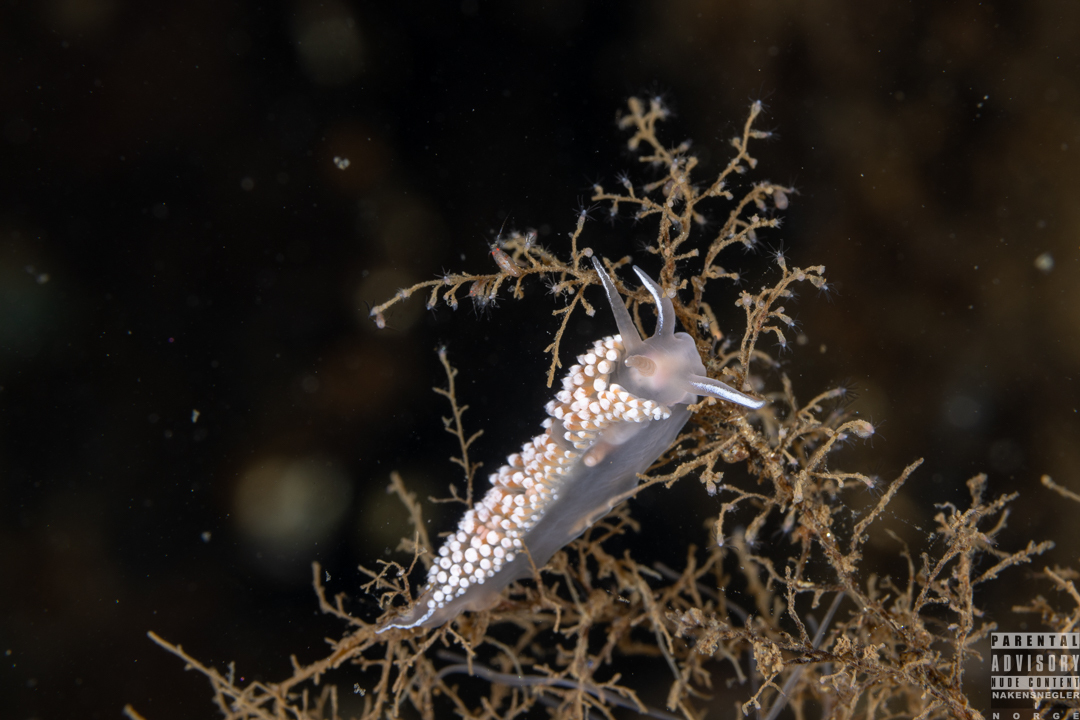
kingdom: Animalia
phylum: Mollusca
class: Gastropoda
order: Nudibranchia
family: Coryphellidae
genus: Coryphella
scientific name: Coryphella verrucosa
